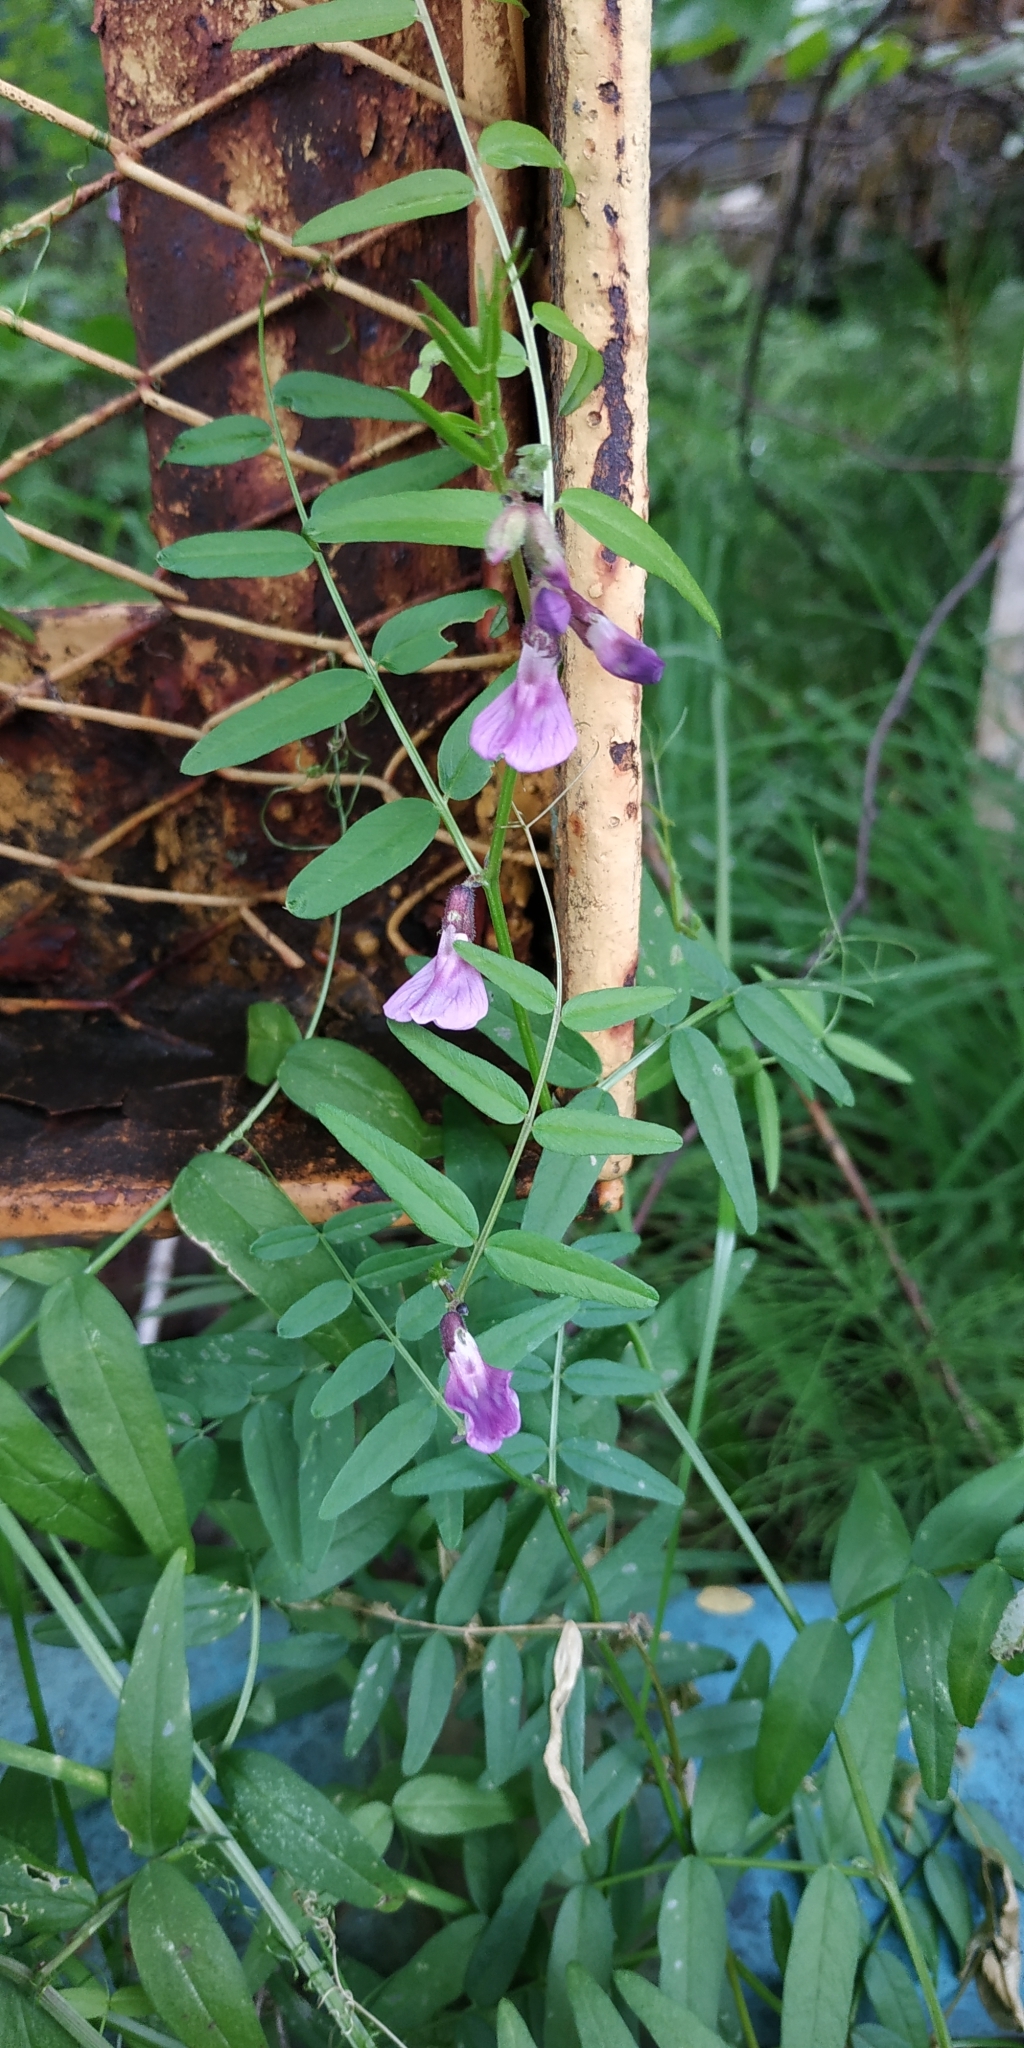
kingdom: Plantae
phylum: Tracheophyta
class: Magnoliopsida
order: Fabales
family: Fabaceae
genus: Vicia
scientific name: Vicia sepium
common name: Bush vetch
